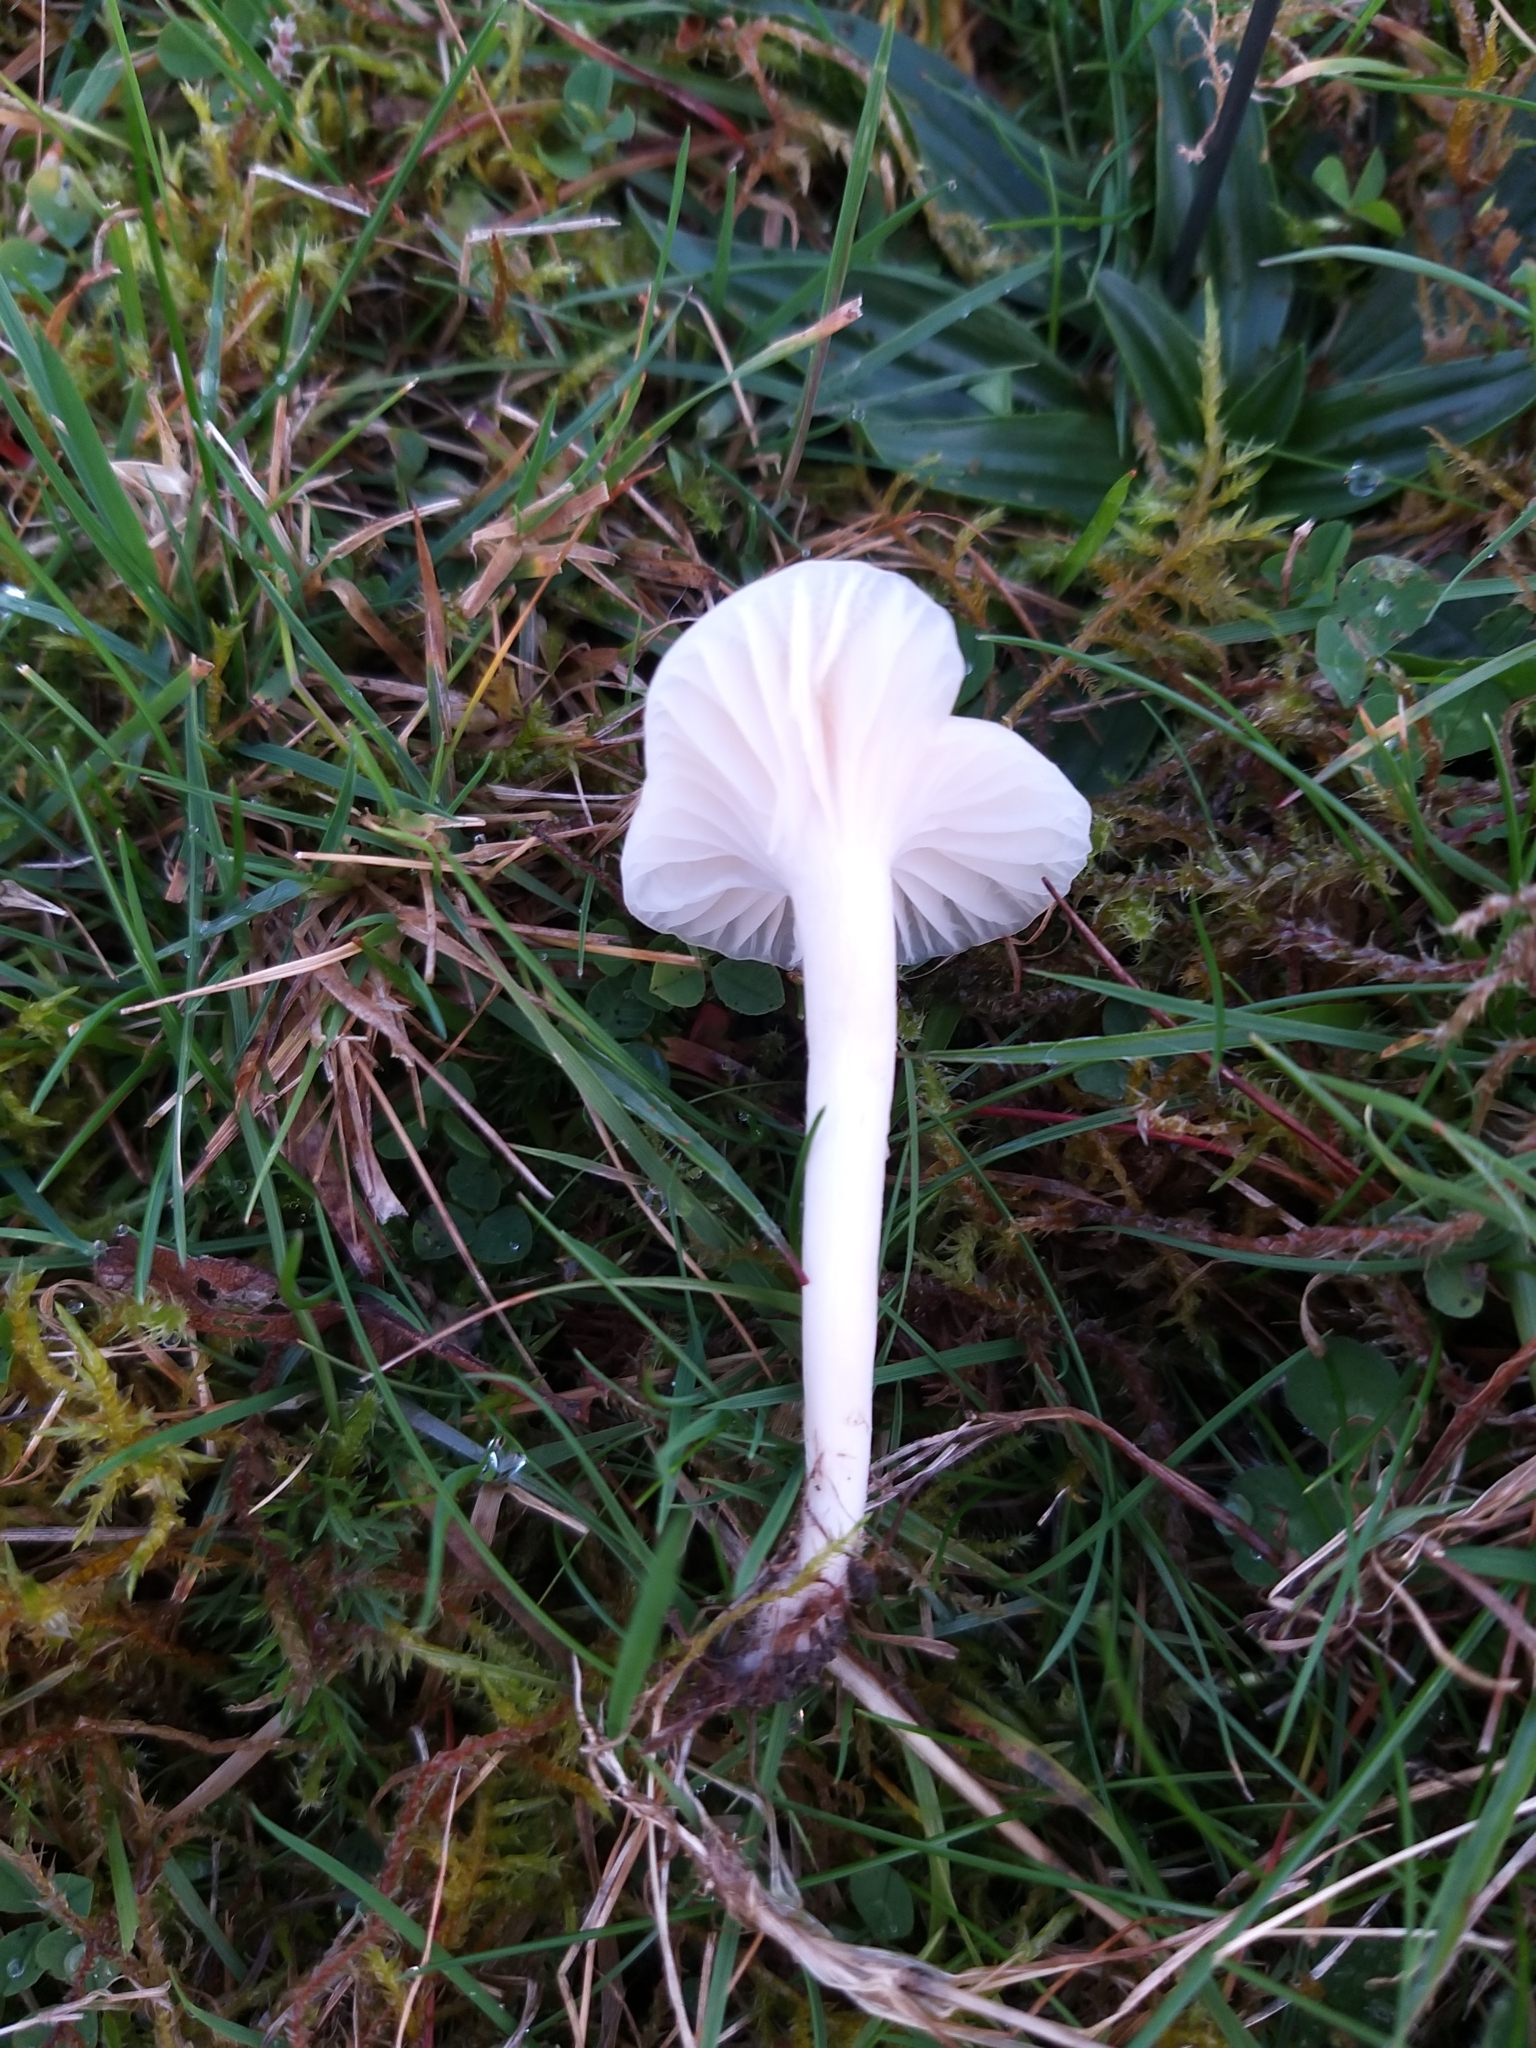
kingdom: Fungi
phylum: Basidiomycota
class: Agaricomycetes
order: Agaricales
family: Hygrophoraceae
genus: Cuphophyllus
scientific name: Cuphophyllus virgineus
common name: Snowy waxcap
